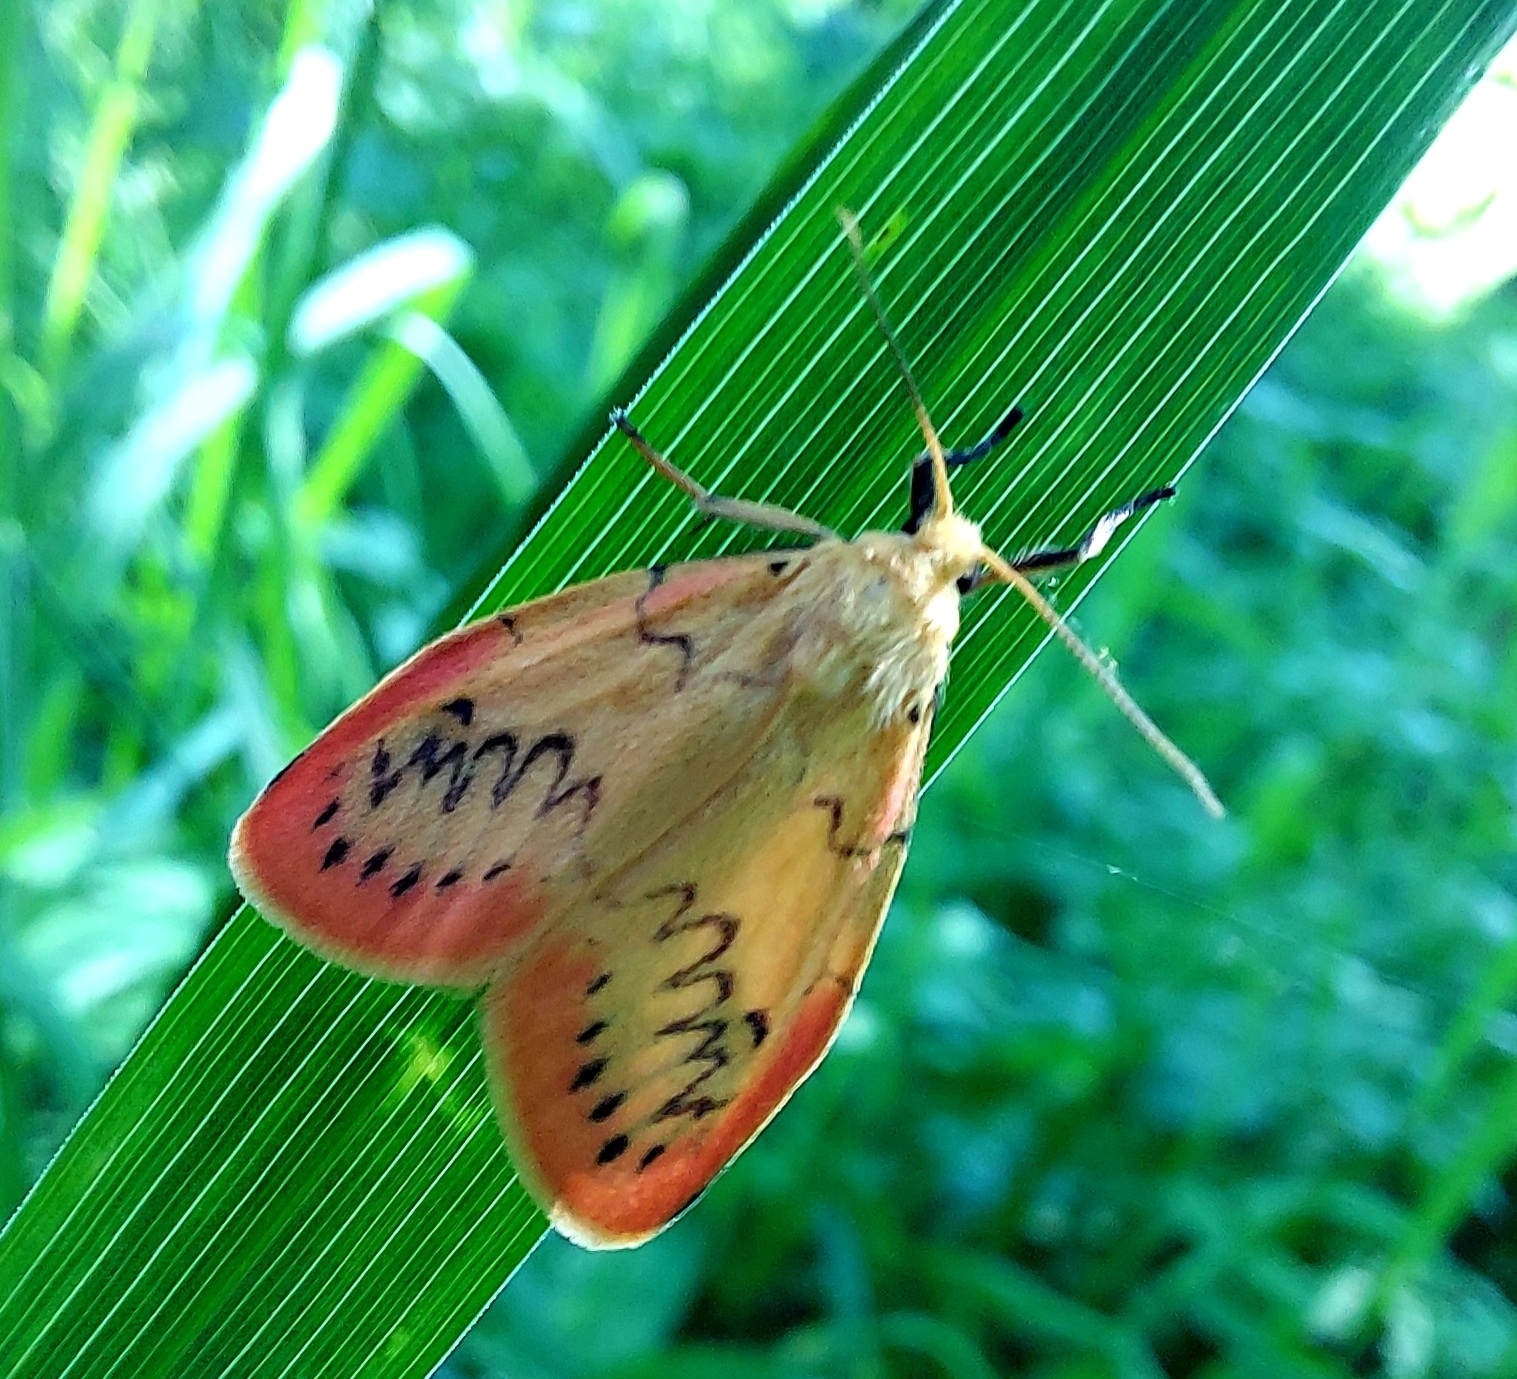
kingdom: Animalia
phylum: Arthropoda
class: Insecta
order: Lepidoptera
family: Erebidae
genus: Miltochrista
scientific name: Miltochrista miniata
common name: Rosy footman
